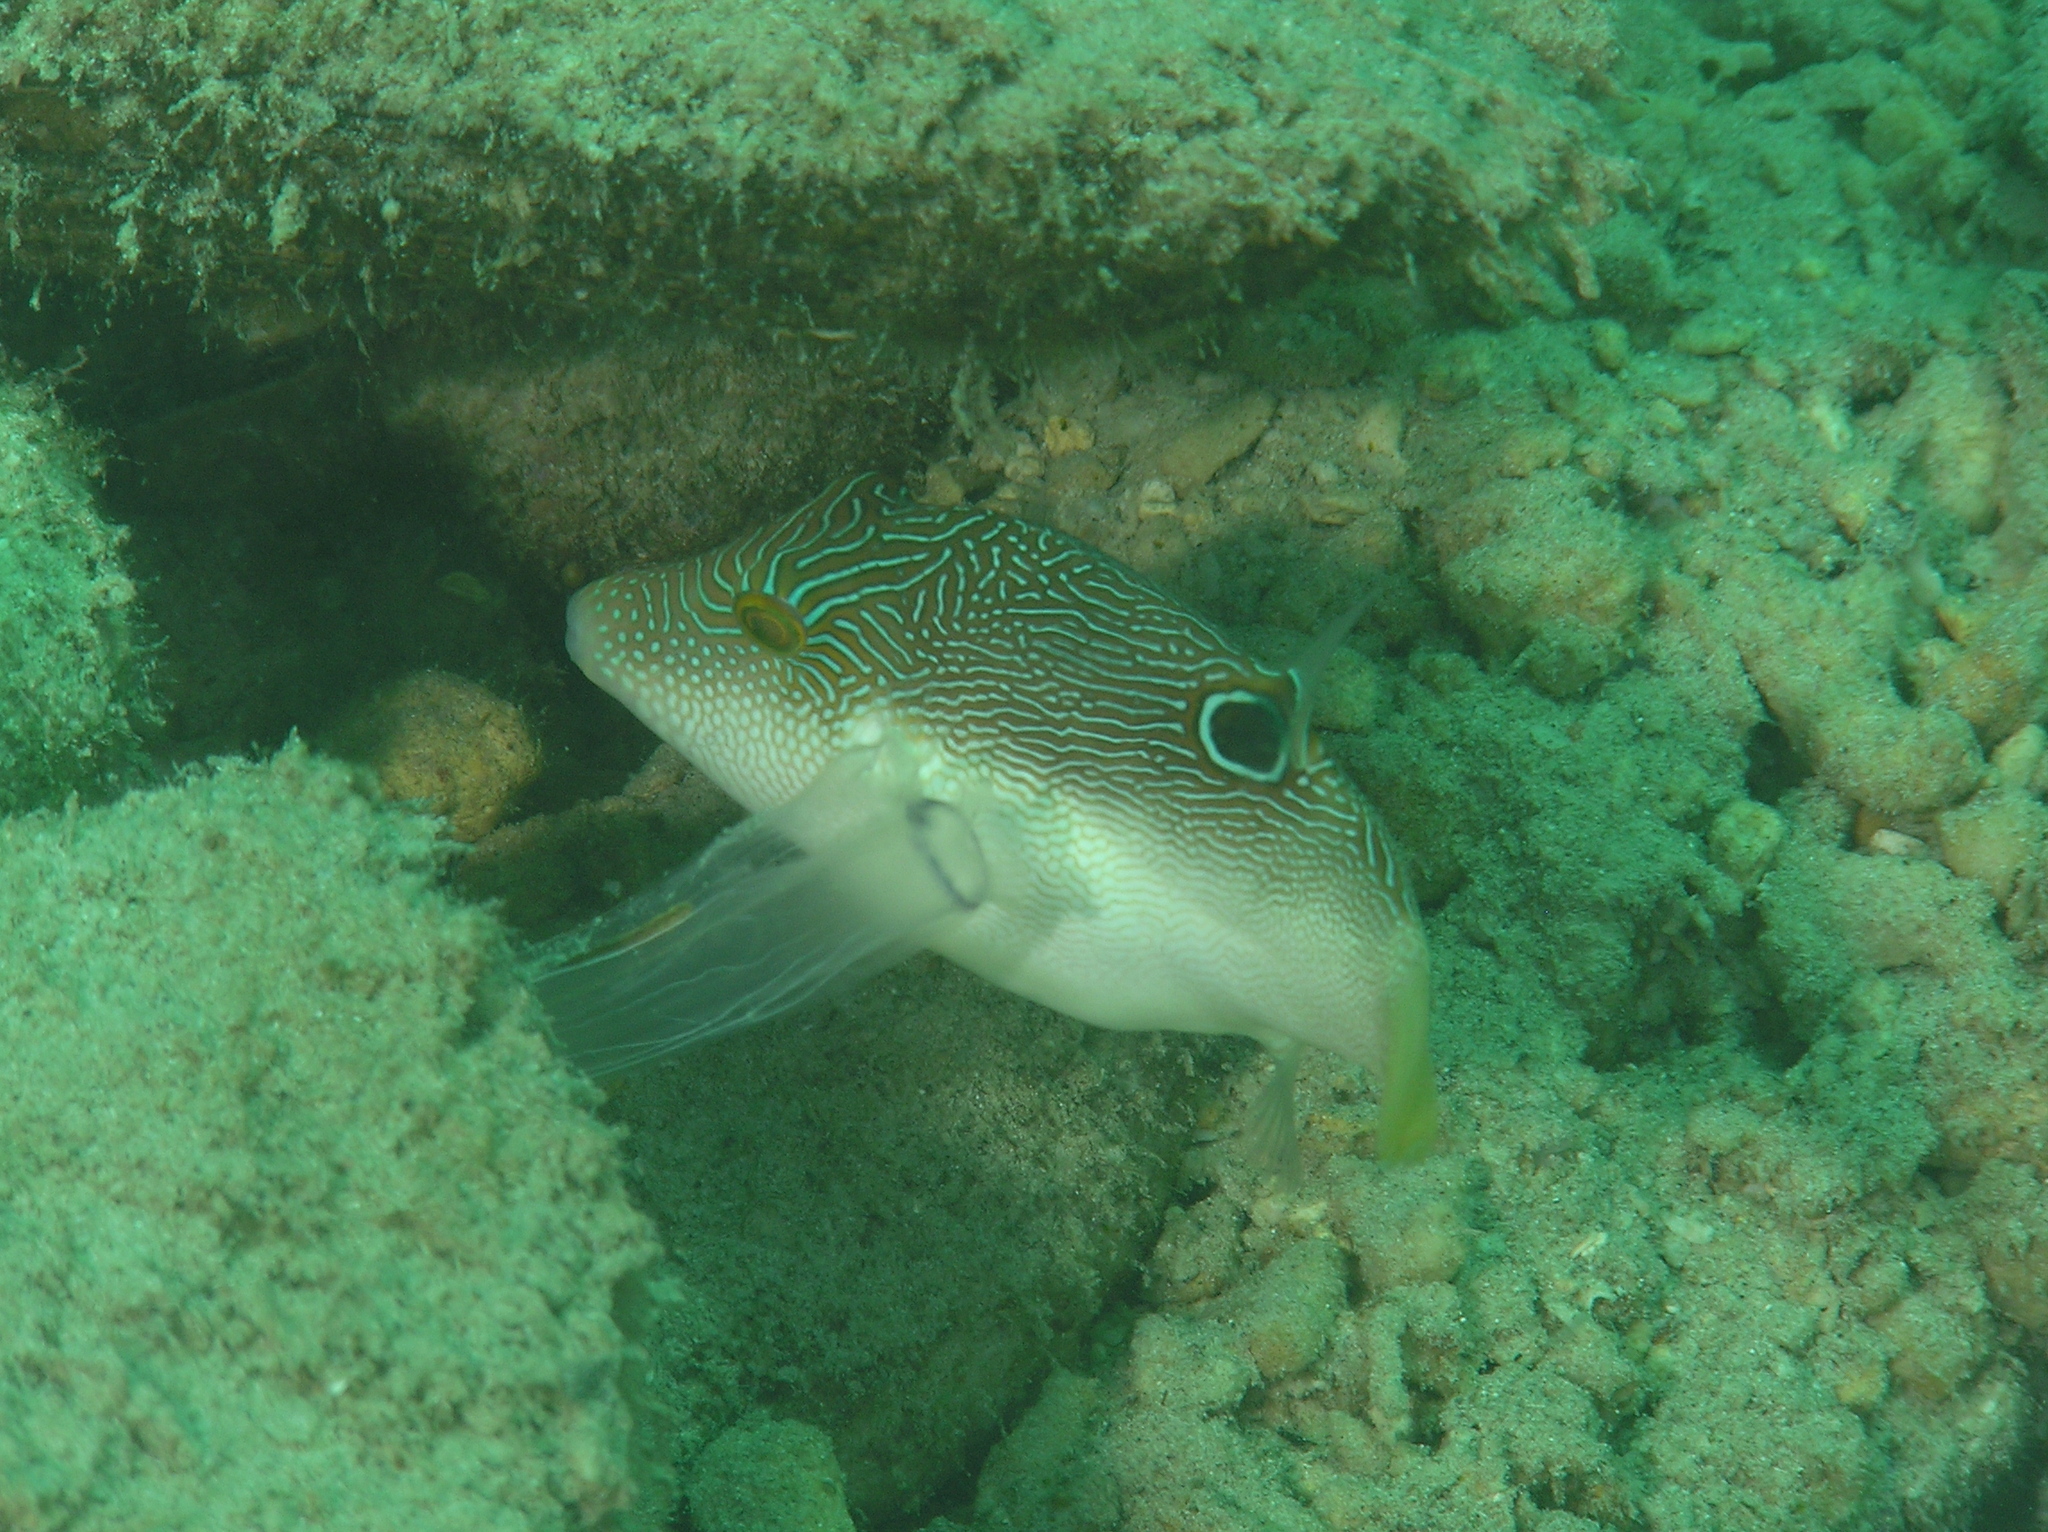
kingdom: Animalia
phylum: Chordata
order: Tetraodontiformes
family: Tetraodontidae
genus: Canthigaster
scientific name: Canthigaster compressa
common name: Compressed toby
